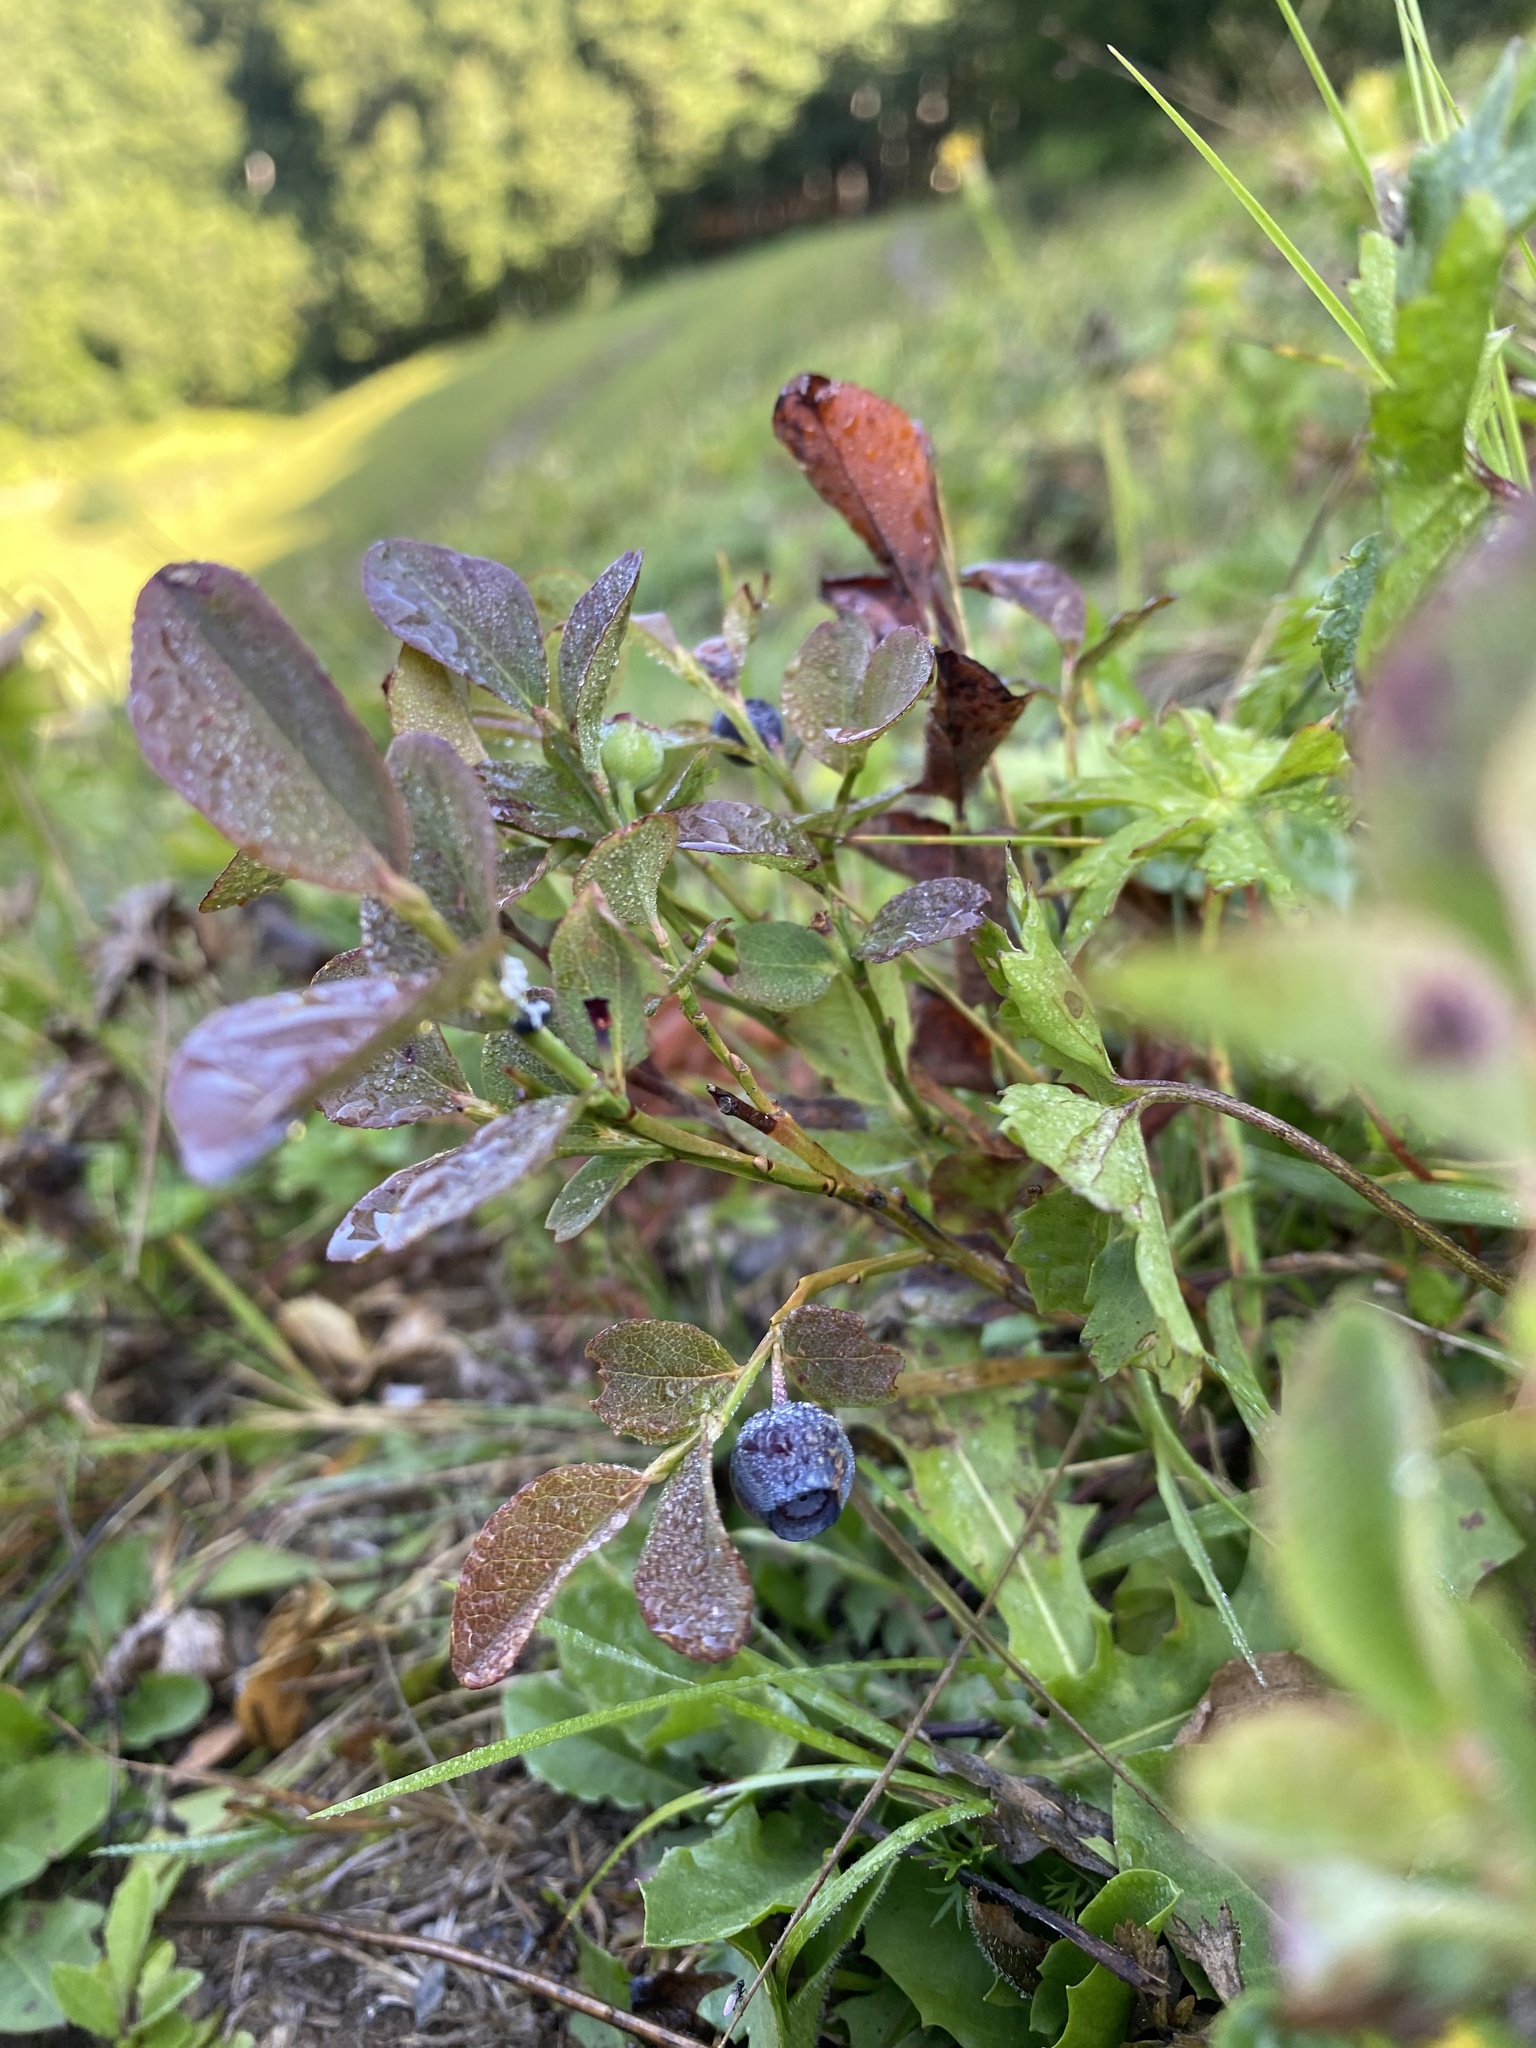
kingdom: Plantae
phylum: Tracheophyta
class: Magnoliopsida
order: Ericales
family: Ericaceae
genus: Vaccinium
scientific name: Vaccinium myrtillus
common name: Bilberry
